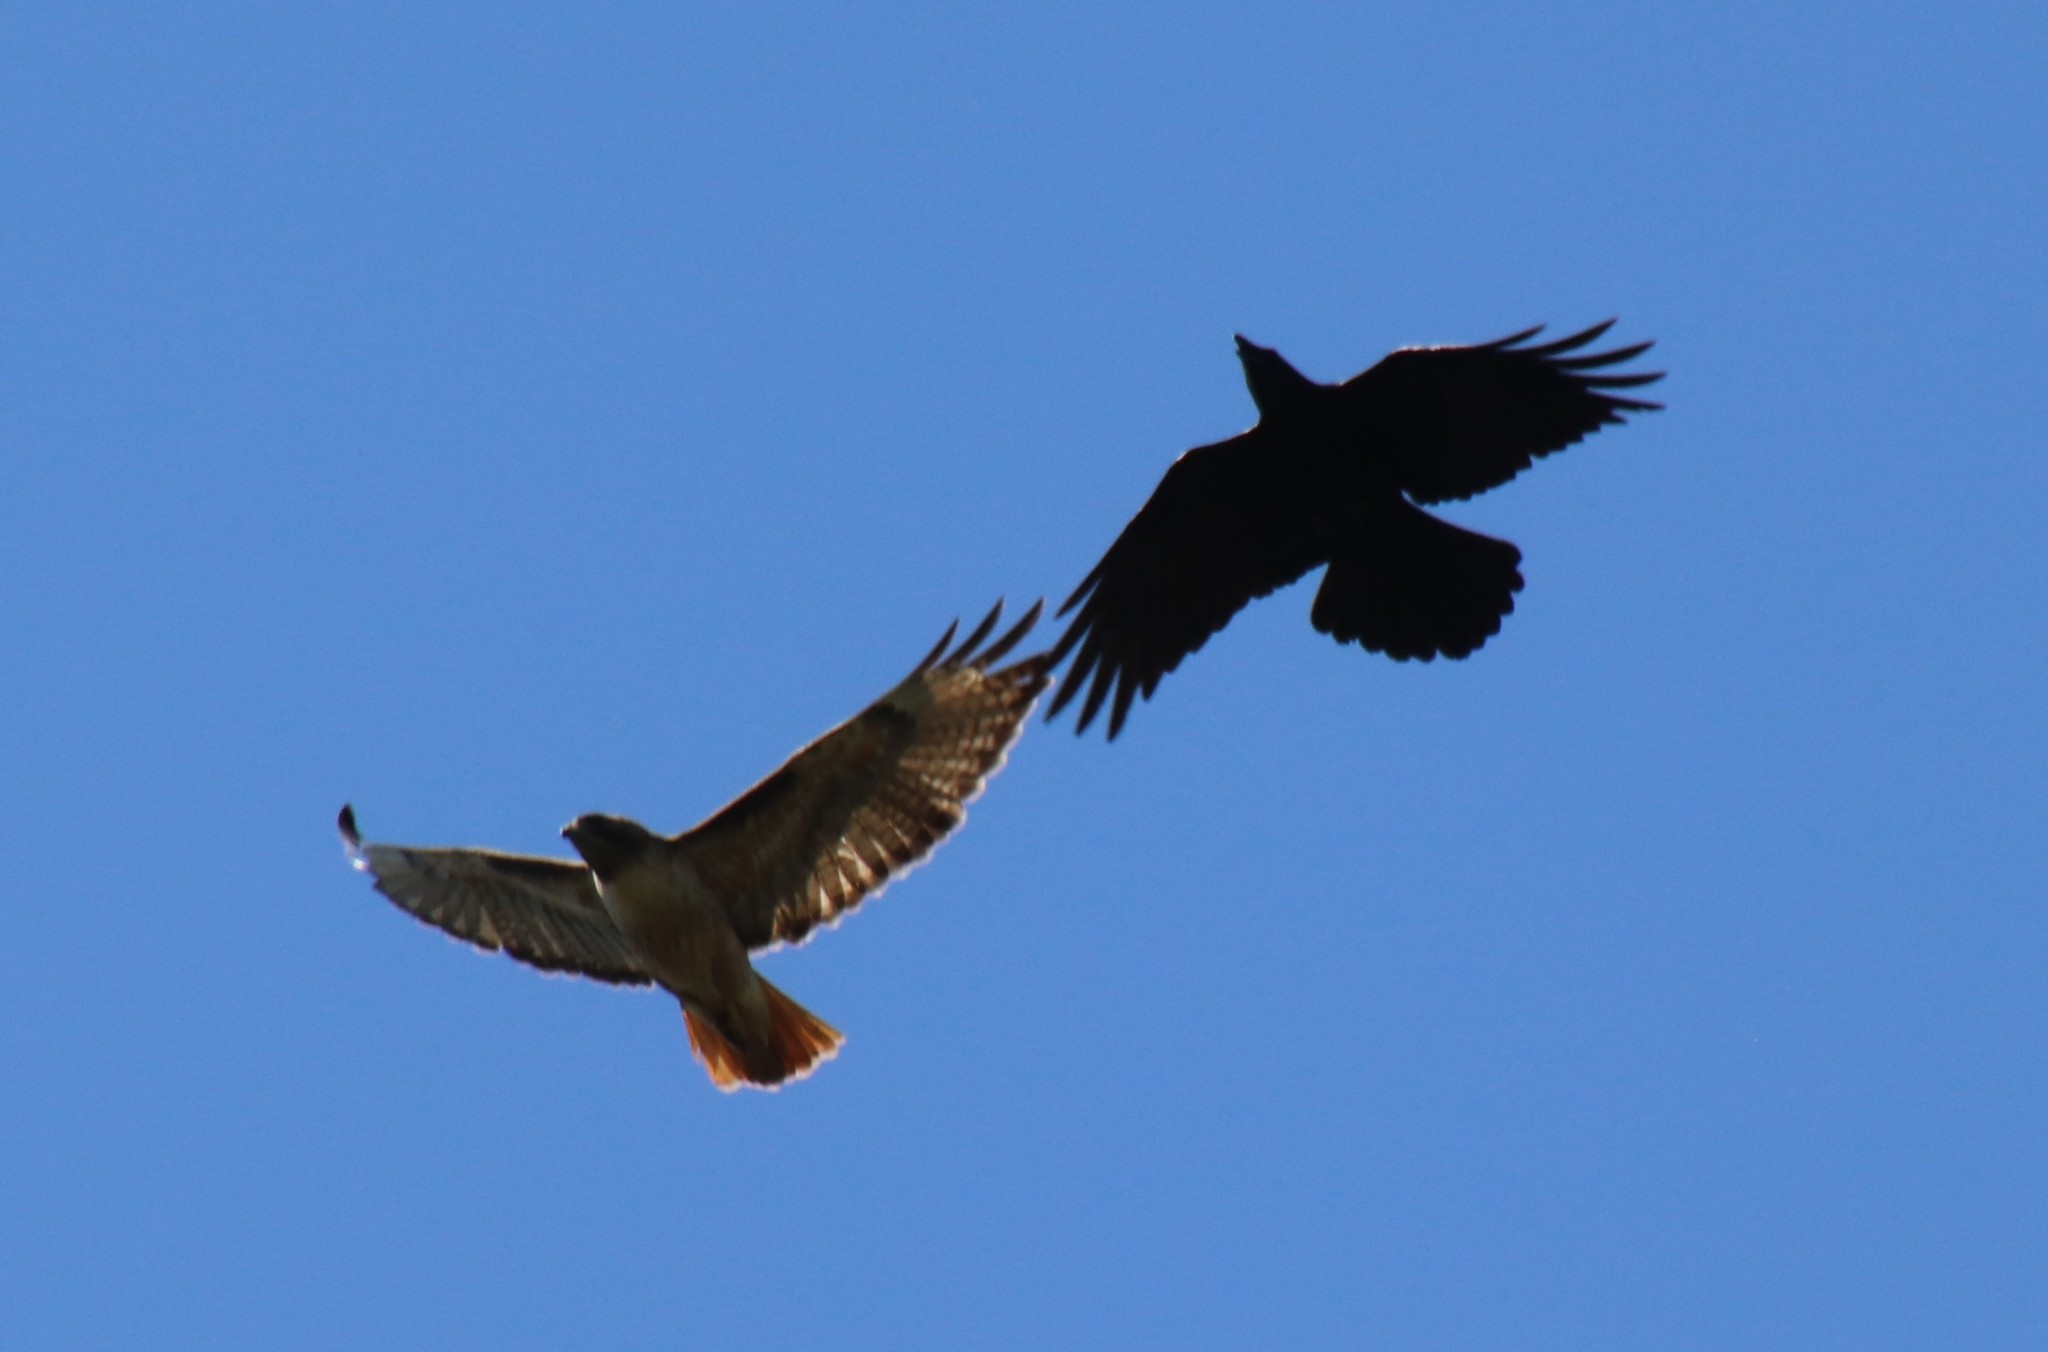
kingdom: Animalia
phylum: Chordata
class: Aves
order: Accipitriformes
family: Accipitridae
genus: Buteo
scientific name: Buteo jamaicensis
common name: Red-tailed hawk
